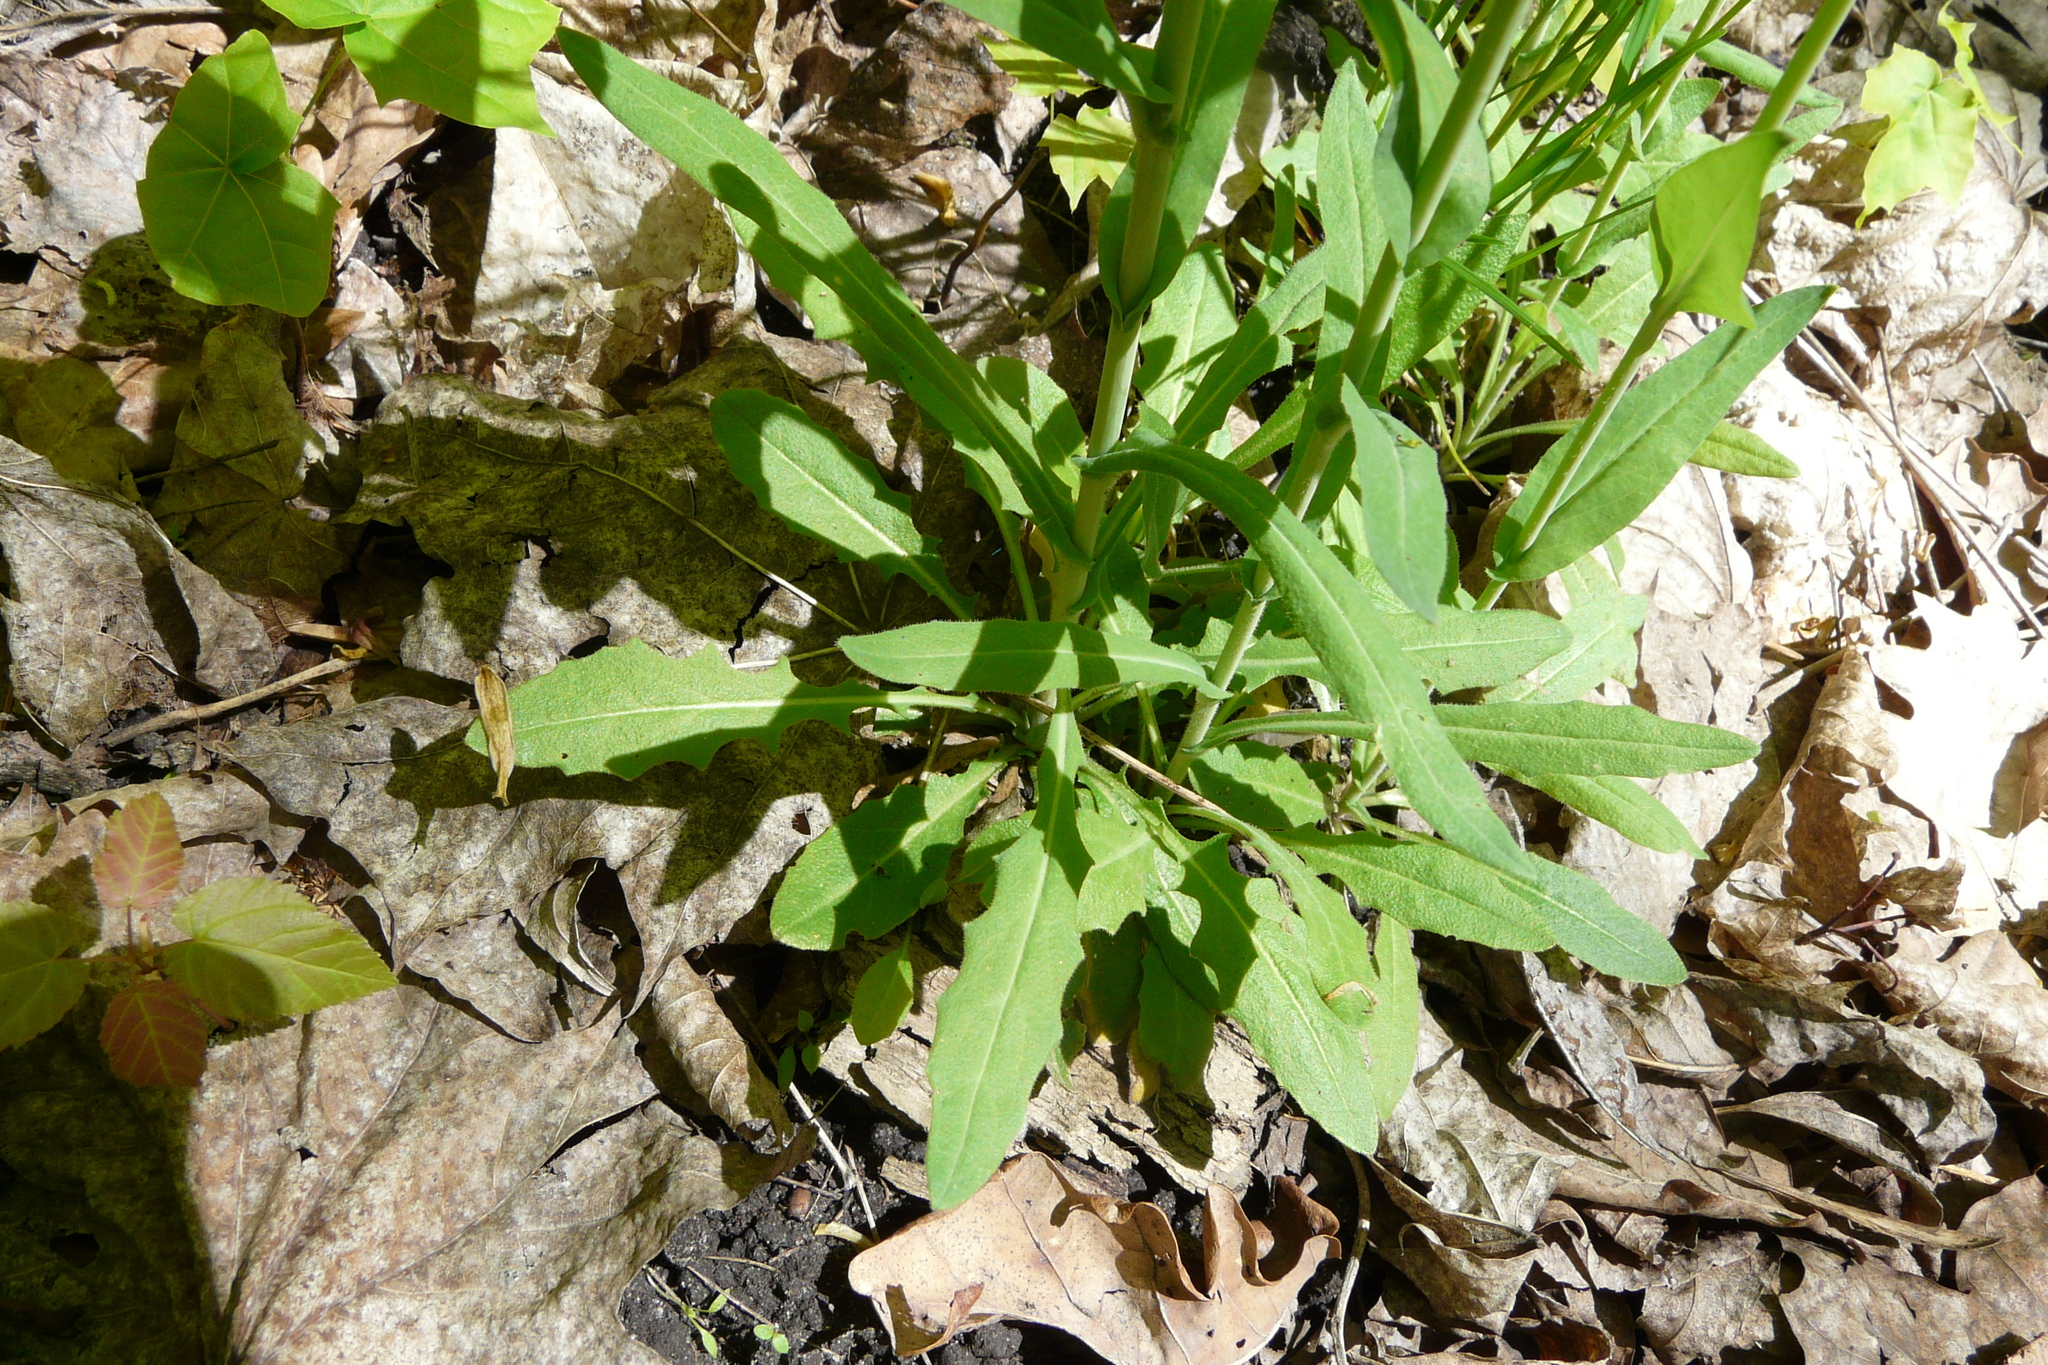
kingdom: Plantae
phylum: Tracheophyta
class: Magnoliopsida
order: Brassicales
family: Brassicaceae
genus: Turritis
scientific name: Turritis glabra
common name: Tower rockcress
